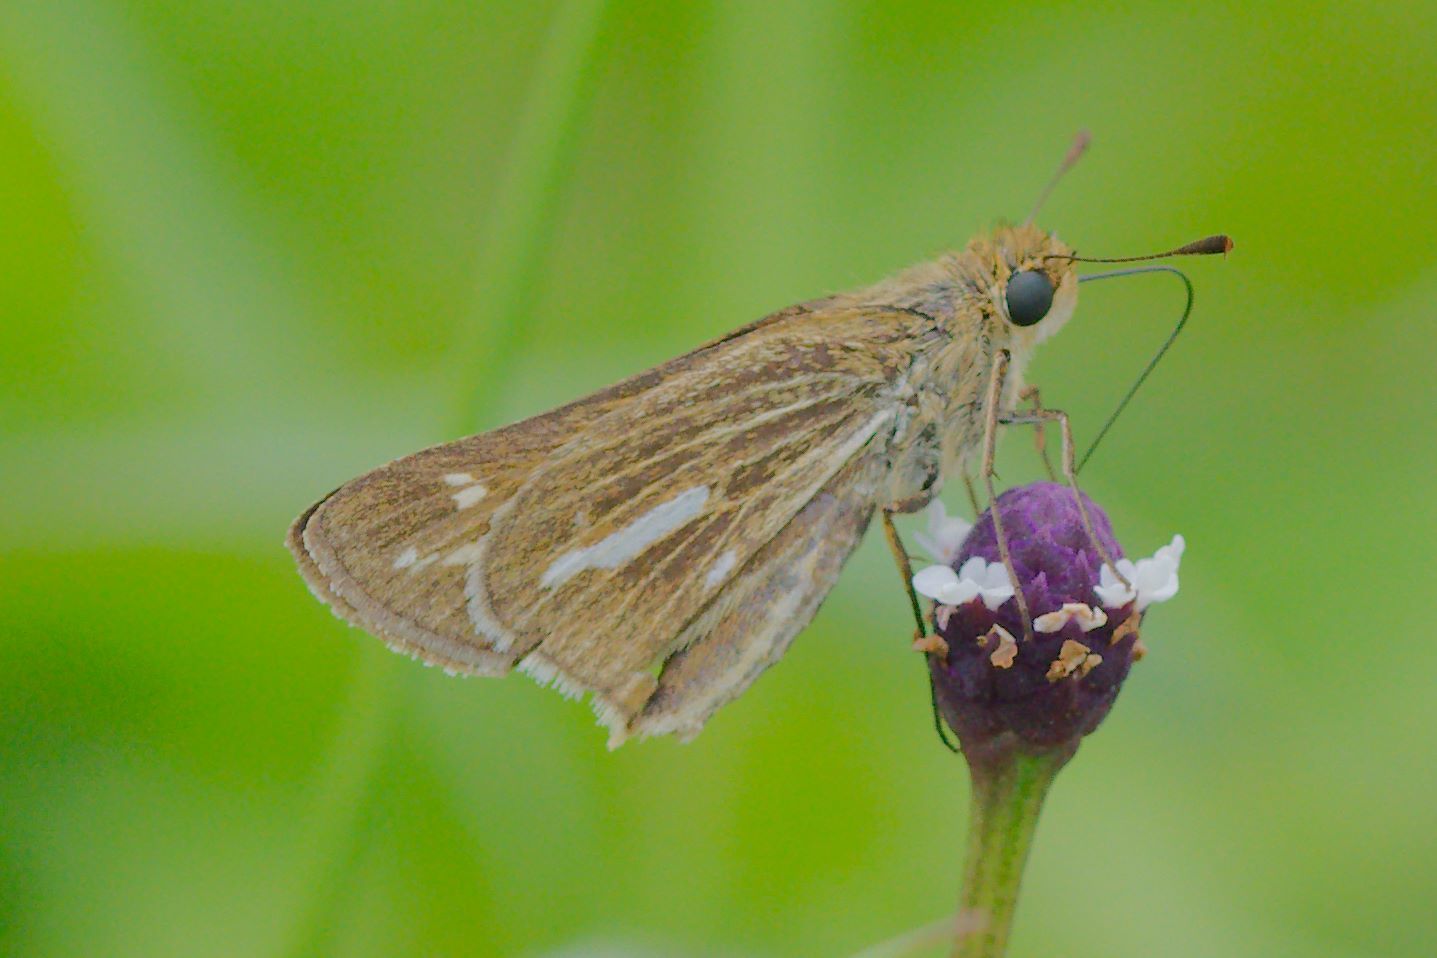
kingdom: Animalia
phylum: Arthropoda
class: Insecta
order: Lepidoptera
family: Hesperiidae
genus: Panoquina
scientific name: Panoquina panoquin
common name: Salt marsh skipper
